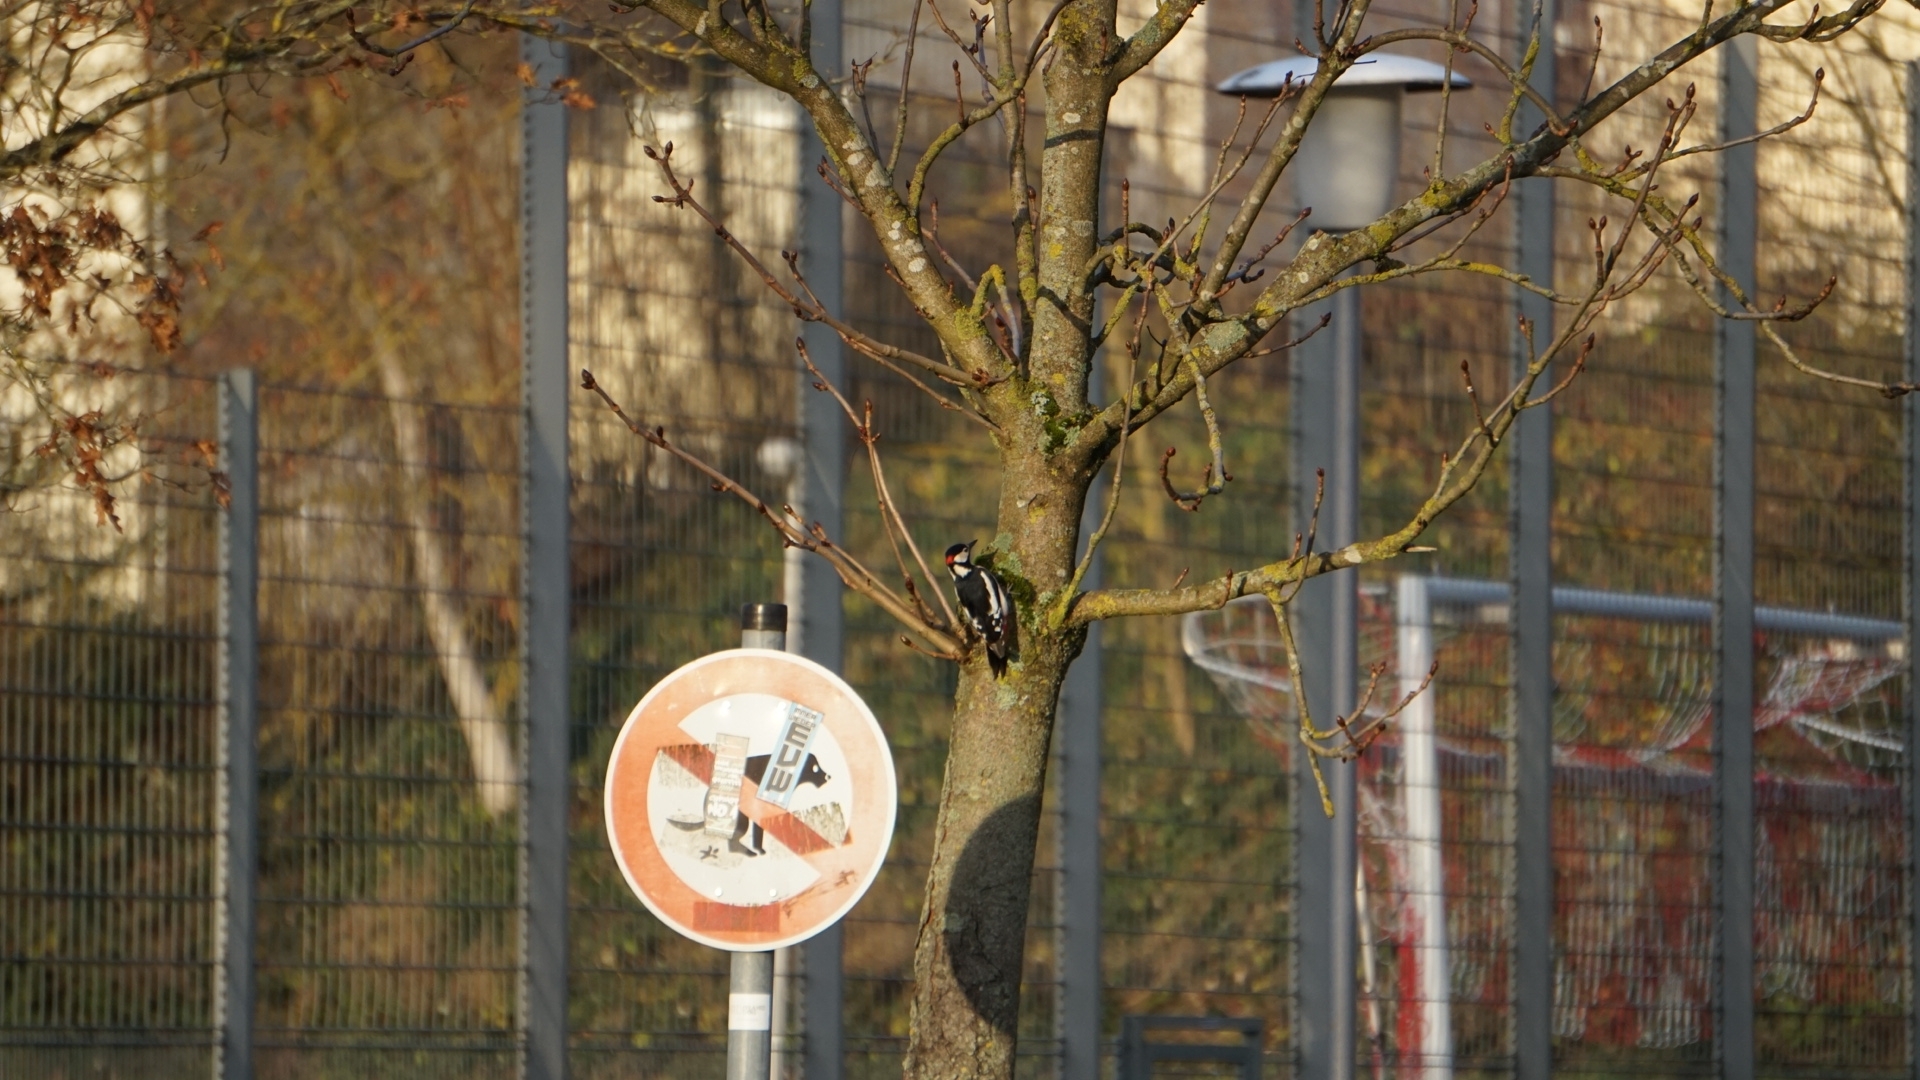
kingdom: Animalia
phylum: Chordata
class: Aves
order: Piciformes
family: Picidae
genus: Dendrocopos
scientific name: Dendrocopos major
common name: Great spotted woodpecker
